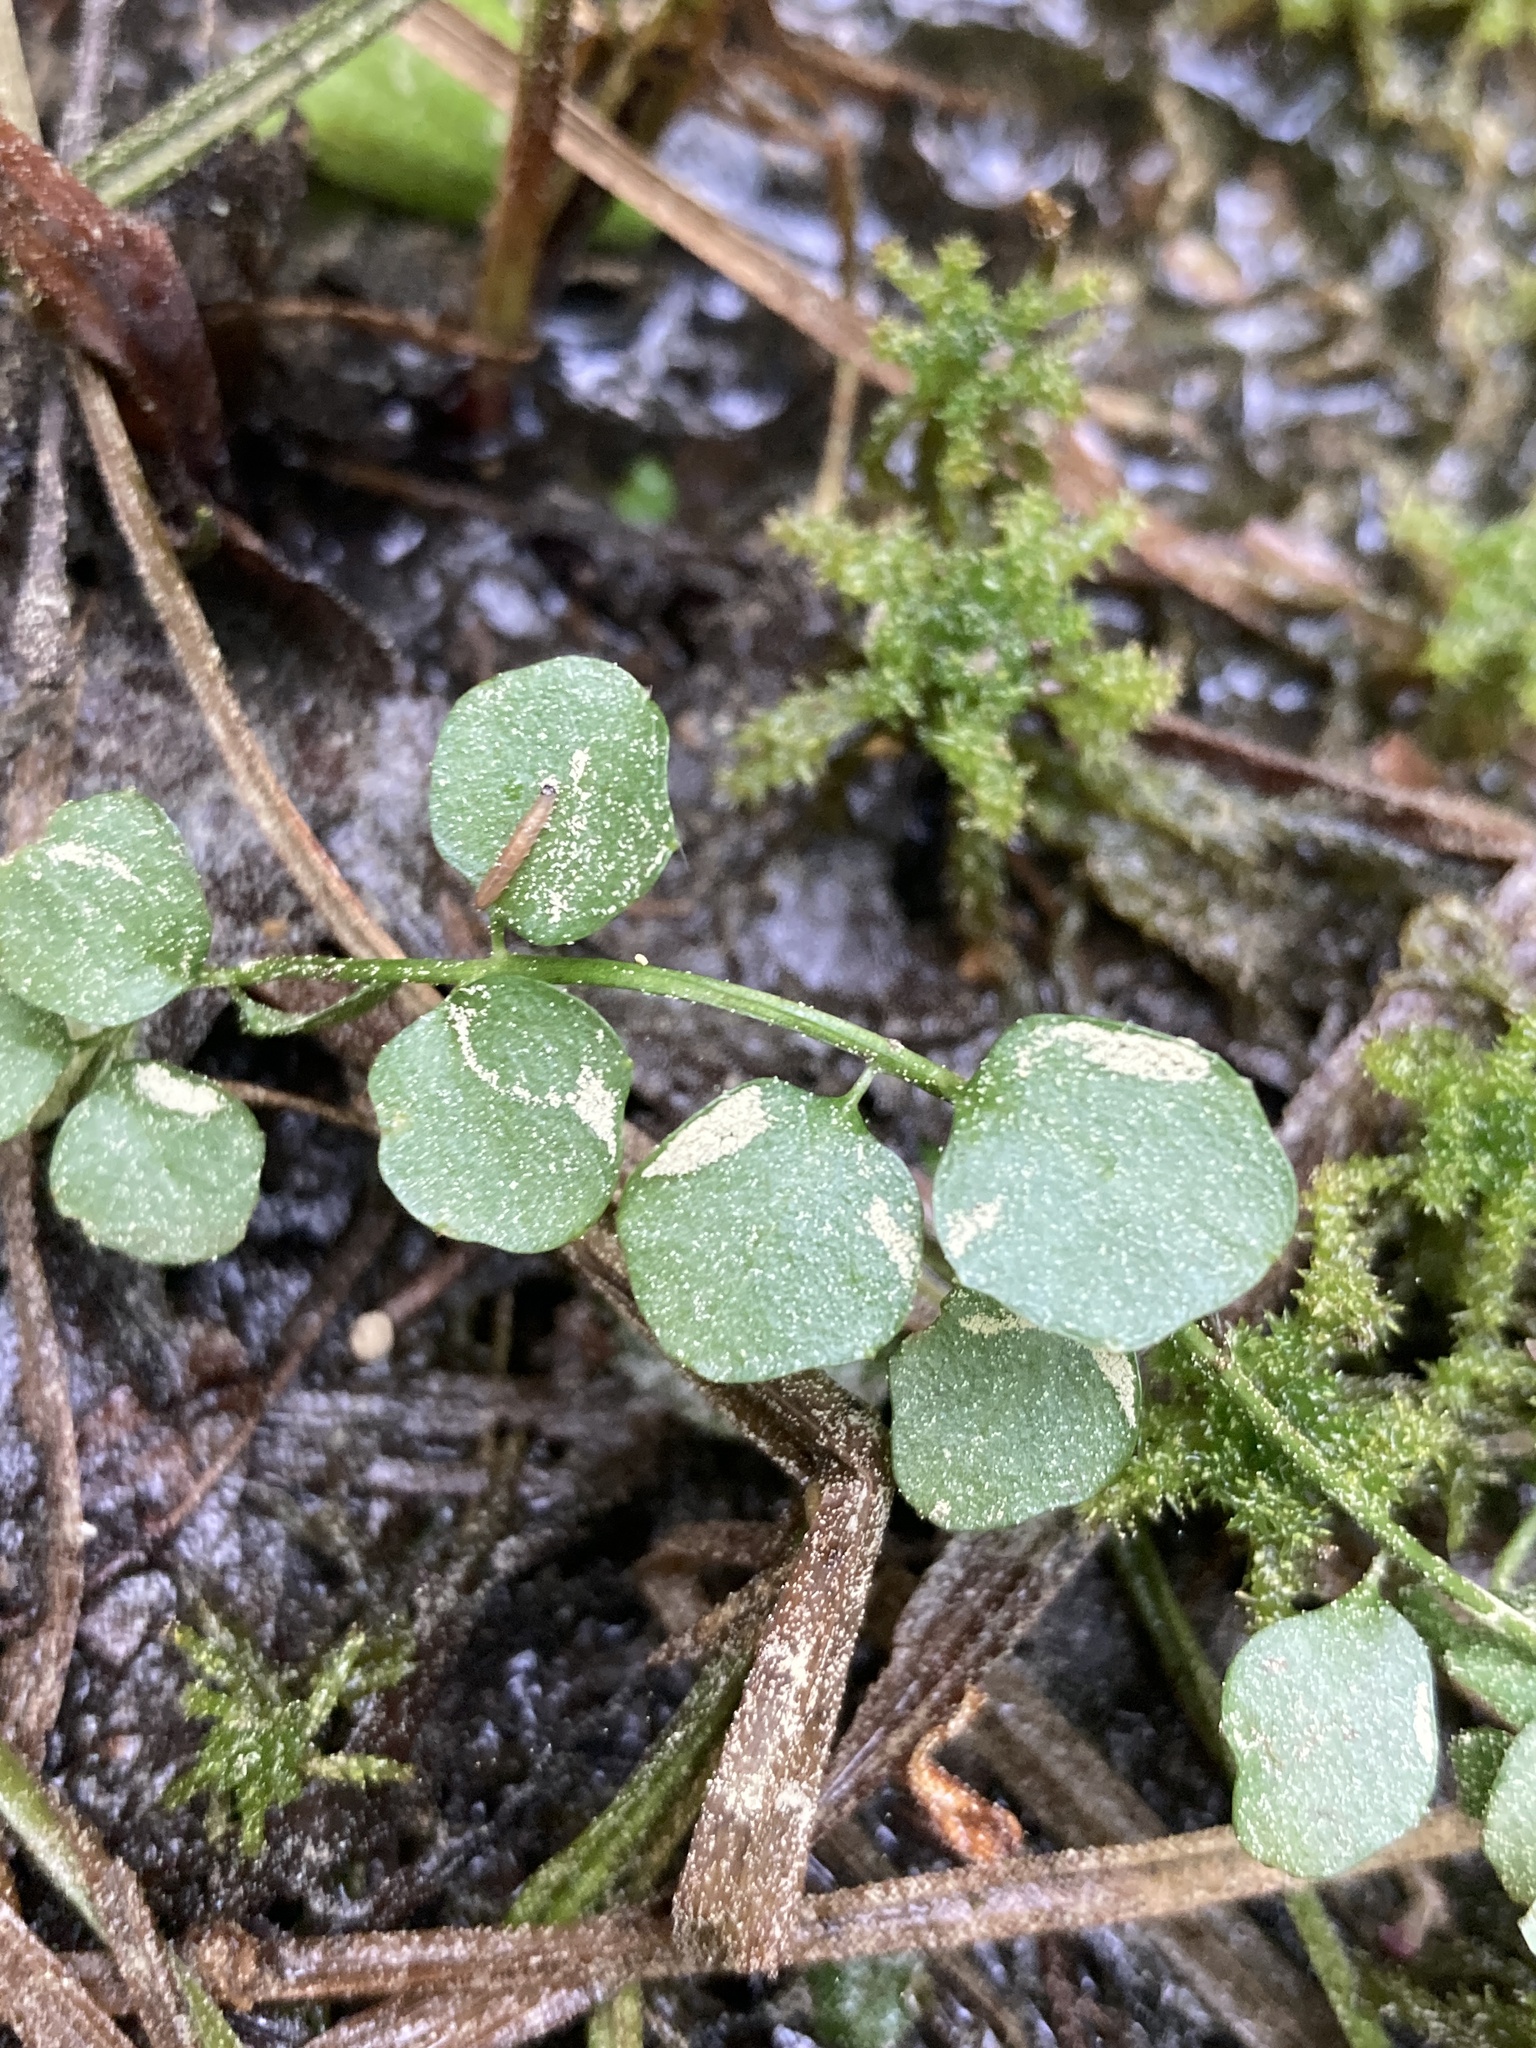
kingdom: Plantae
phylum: Tracheophyta
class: Magnoliopsida
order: Brassicales
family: Brassicaceae
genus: Cardamine
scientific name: Cardamine dentata
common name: Toothed bittercress
